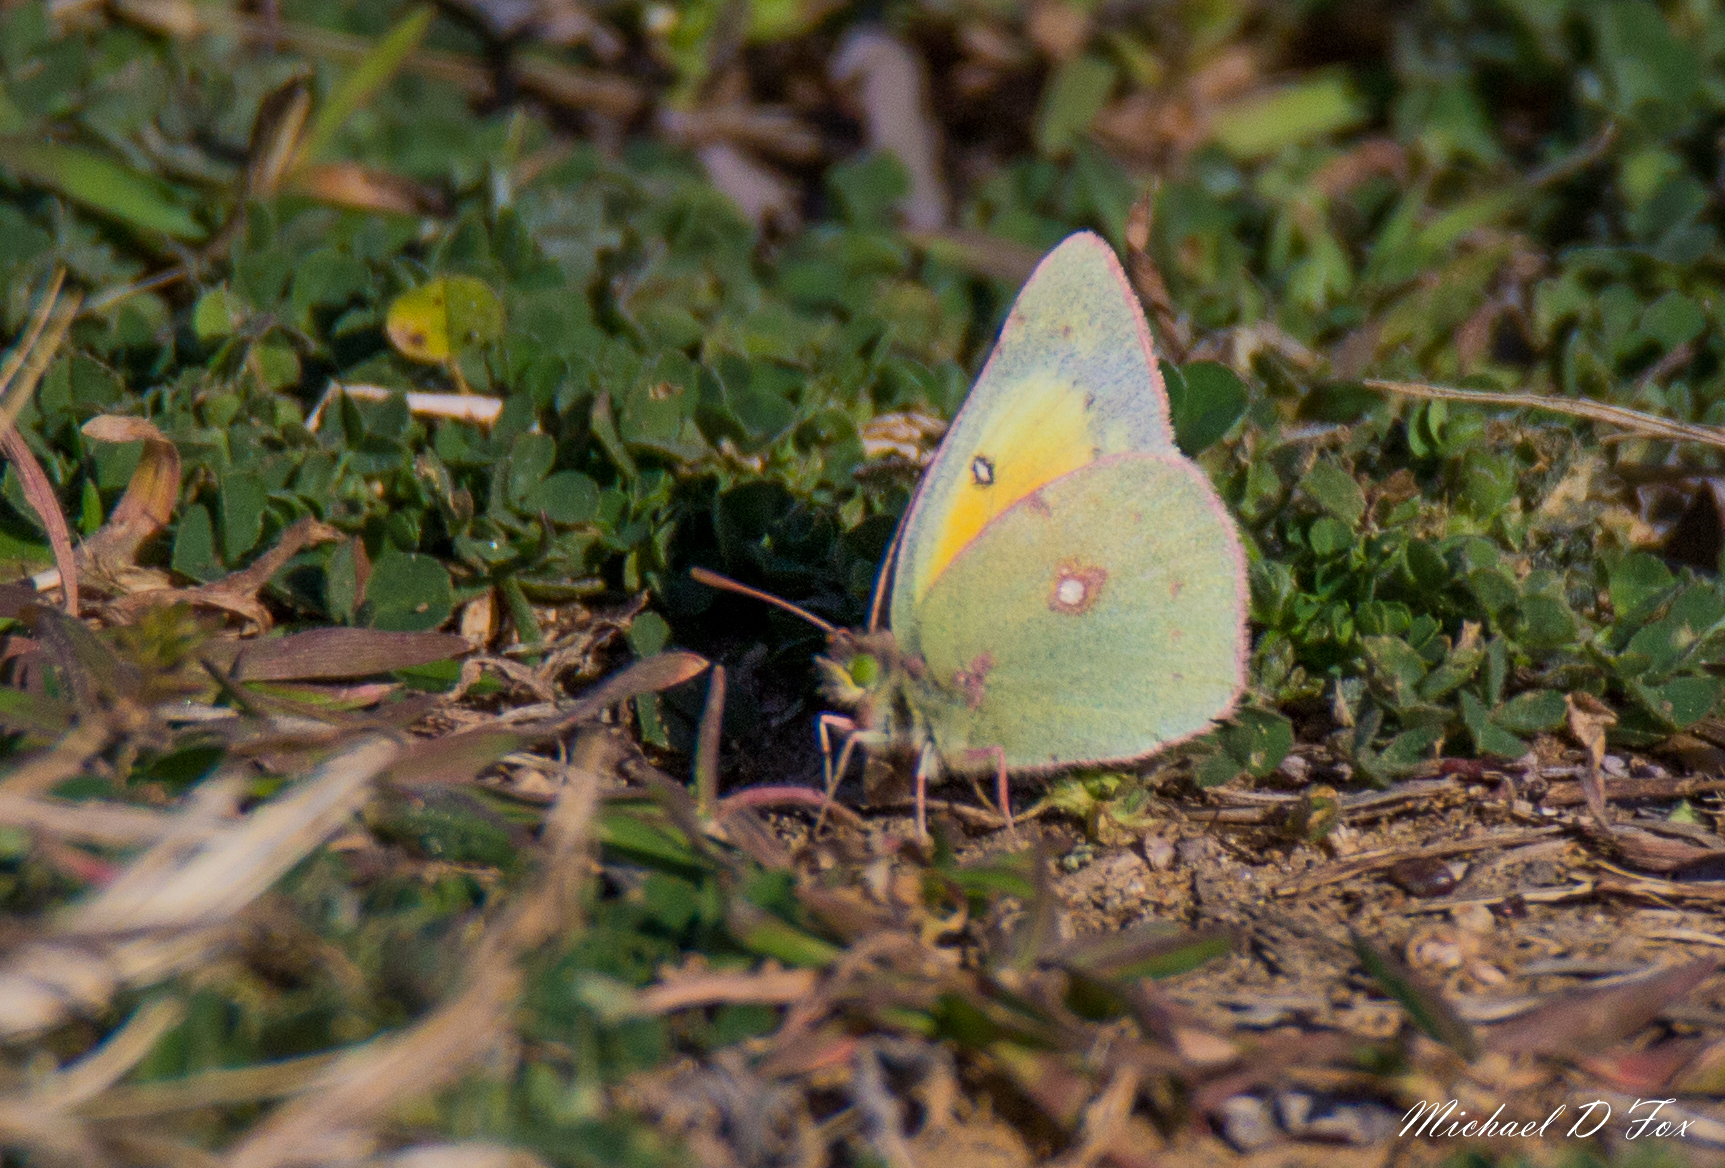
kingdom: Animalia
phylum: Arthropoda
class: Insecta
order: Lepidoptera
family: Pieridae
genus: Colias
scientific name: Colias eurytheme
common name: Alfalfa butterfly
